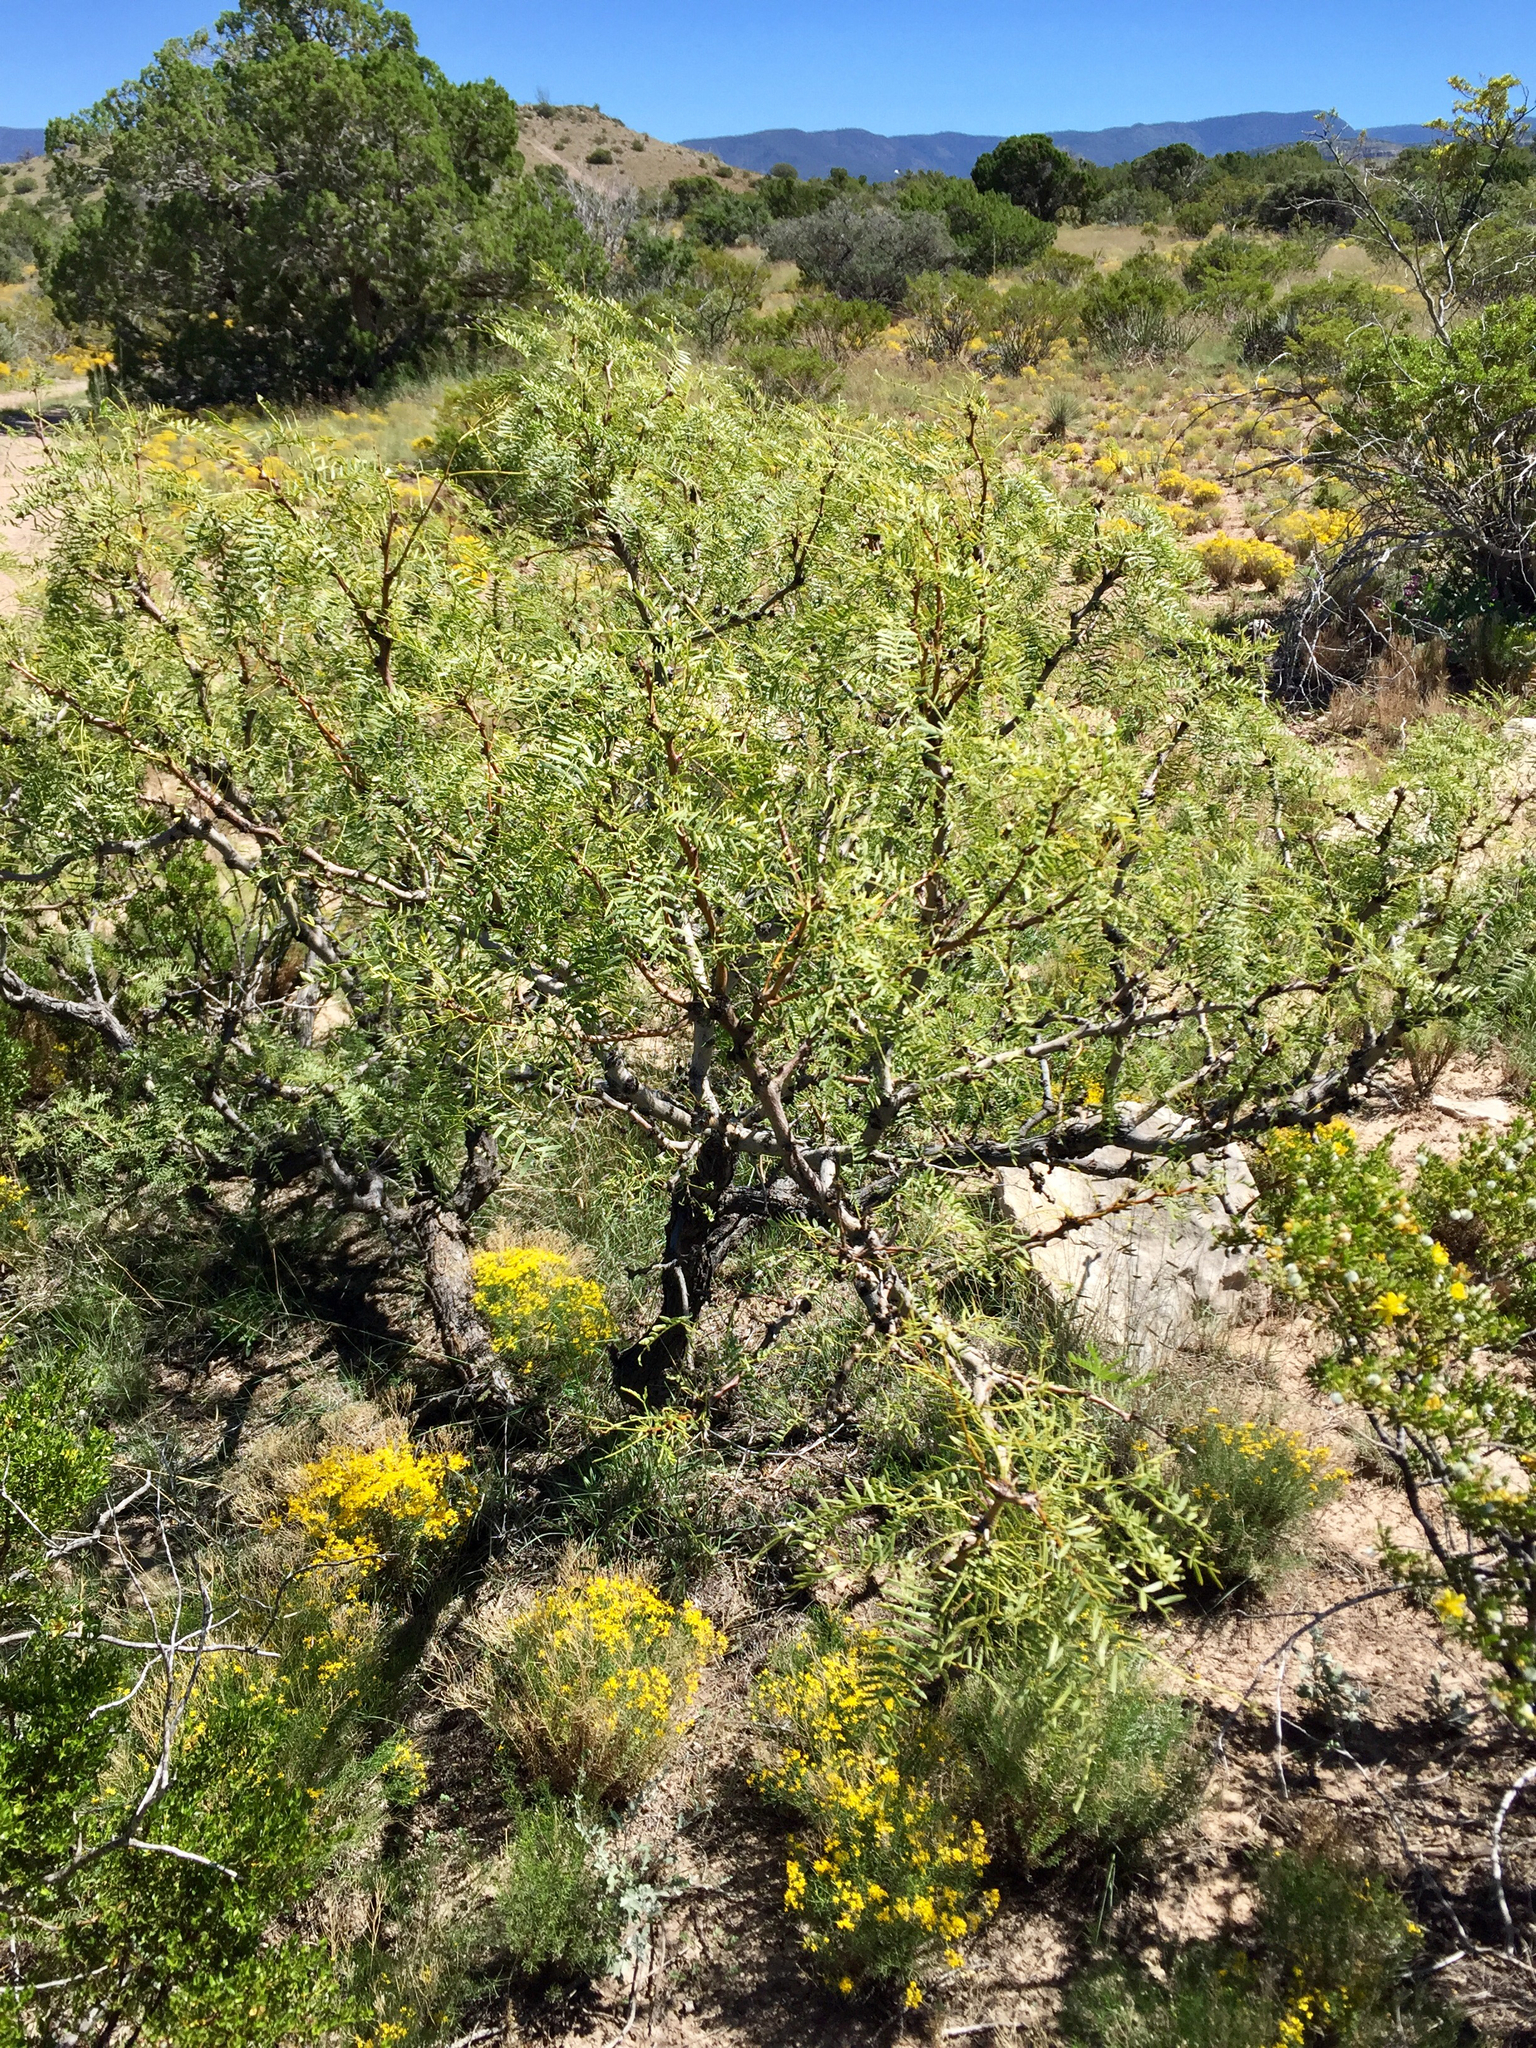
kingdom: Plantae
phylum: Tracheophyta
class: Magnoliopsida
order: Fabales
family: Fabaceae
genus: Prosopis
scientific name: Prosopis glandulosa
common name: Honey mesquite
